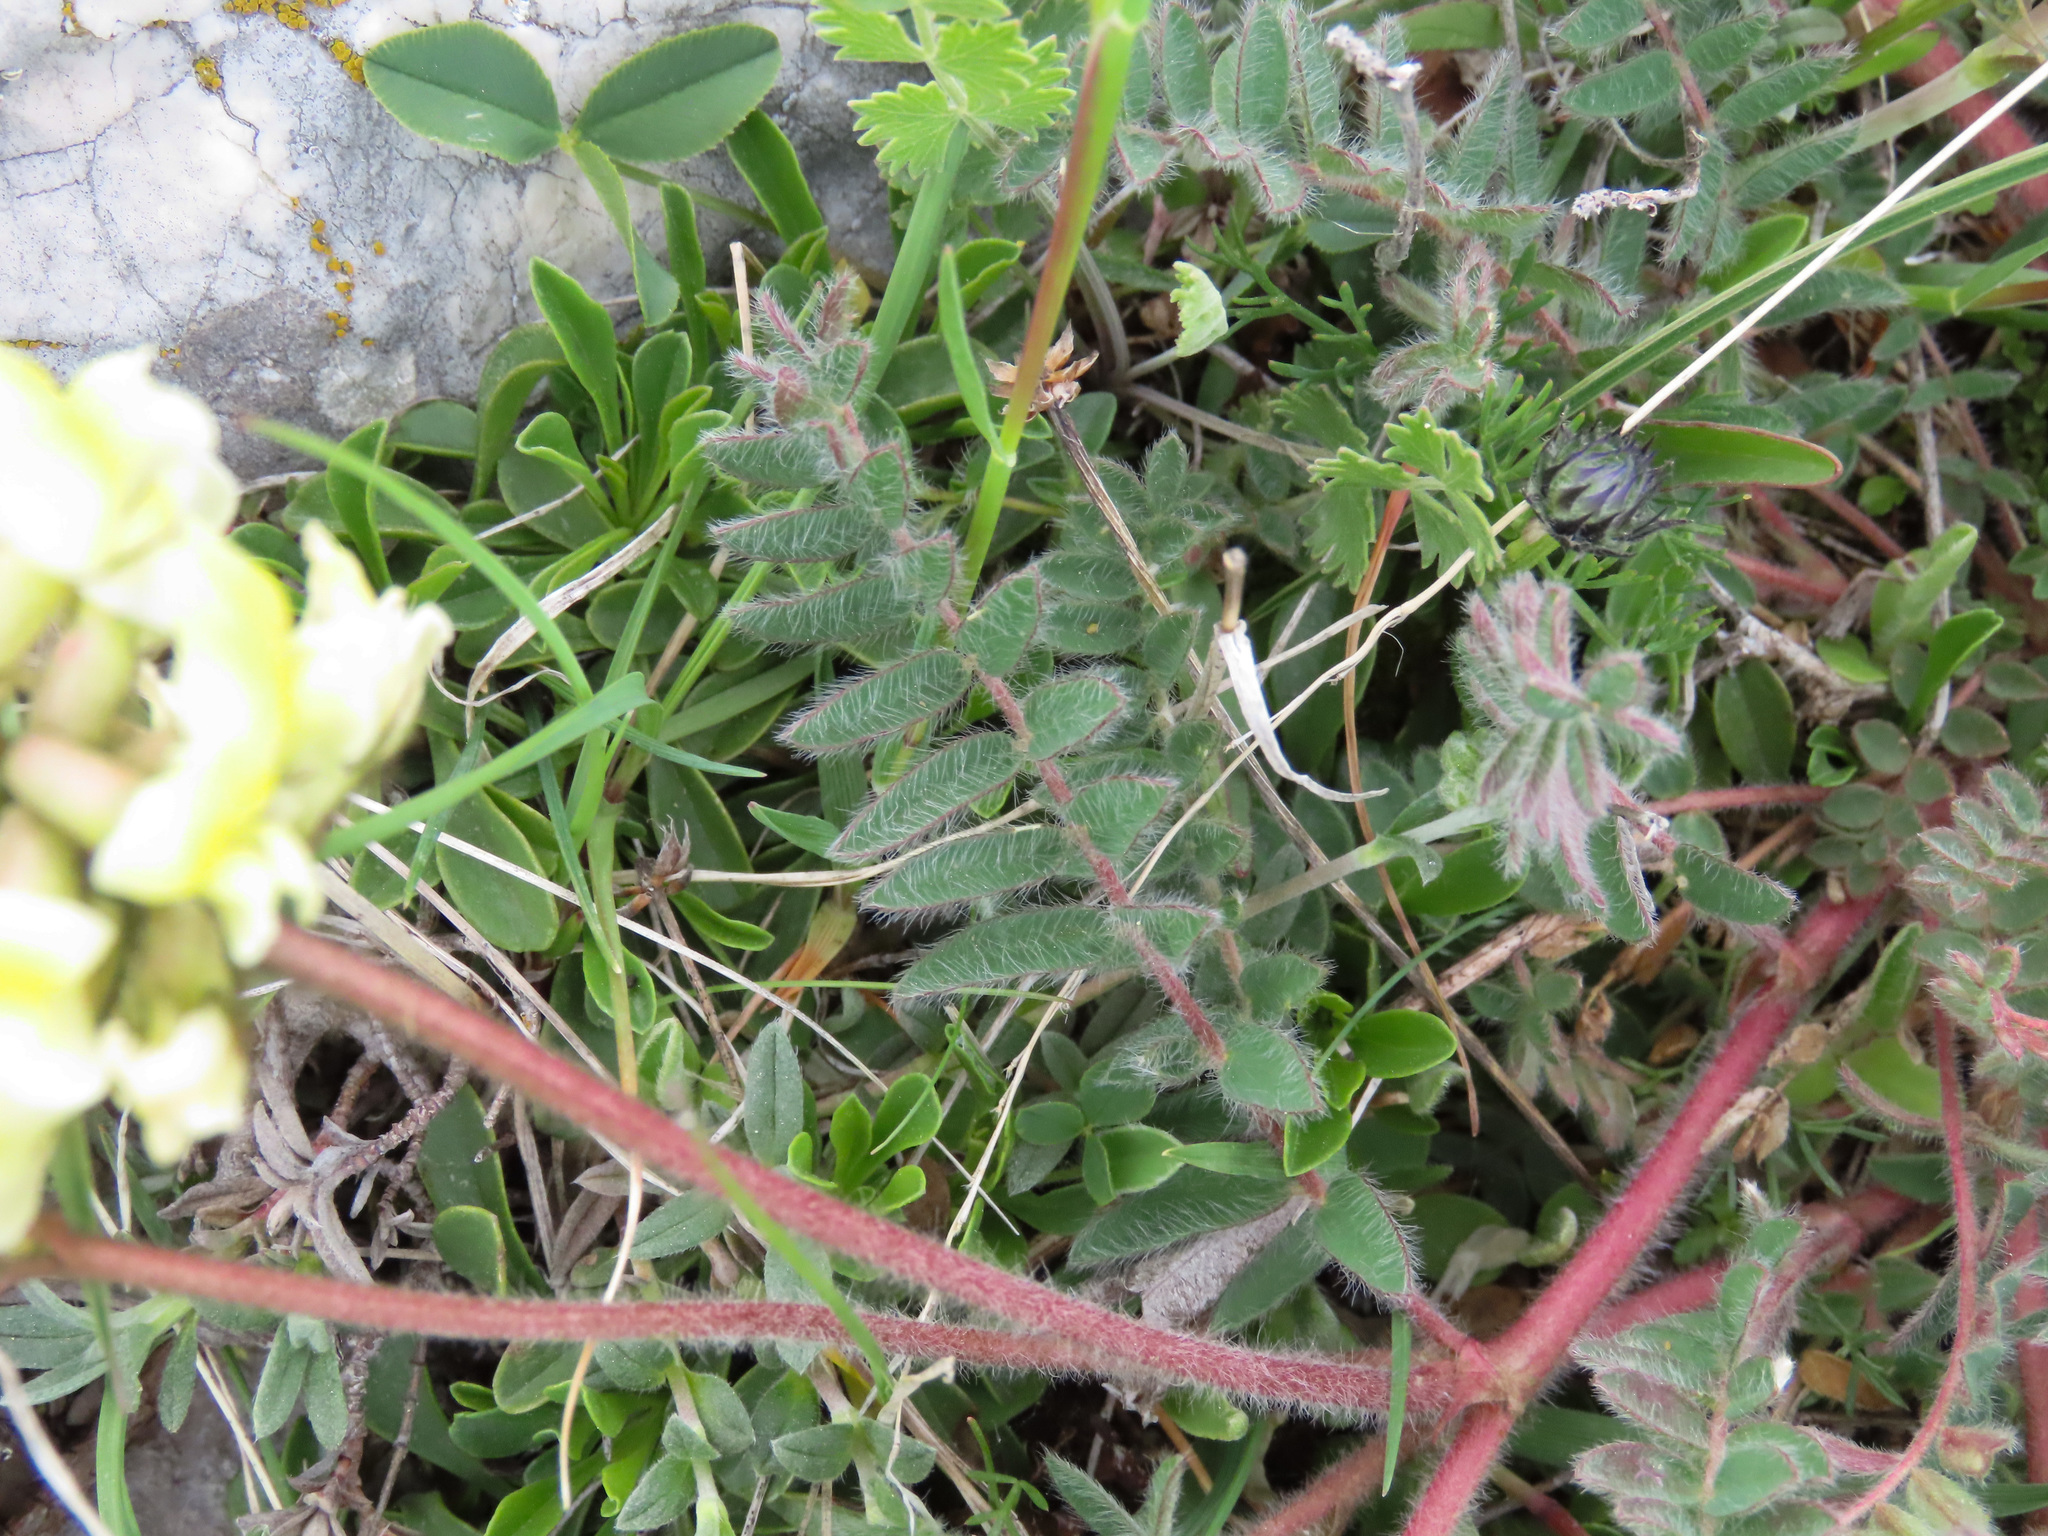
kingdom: Plantae
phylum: Tracheophyta
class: Magnoliopsida
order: Fabales
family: Fabaceae
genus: Oxytropis
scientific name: Oxytropis pilosa
